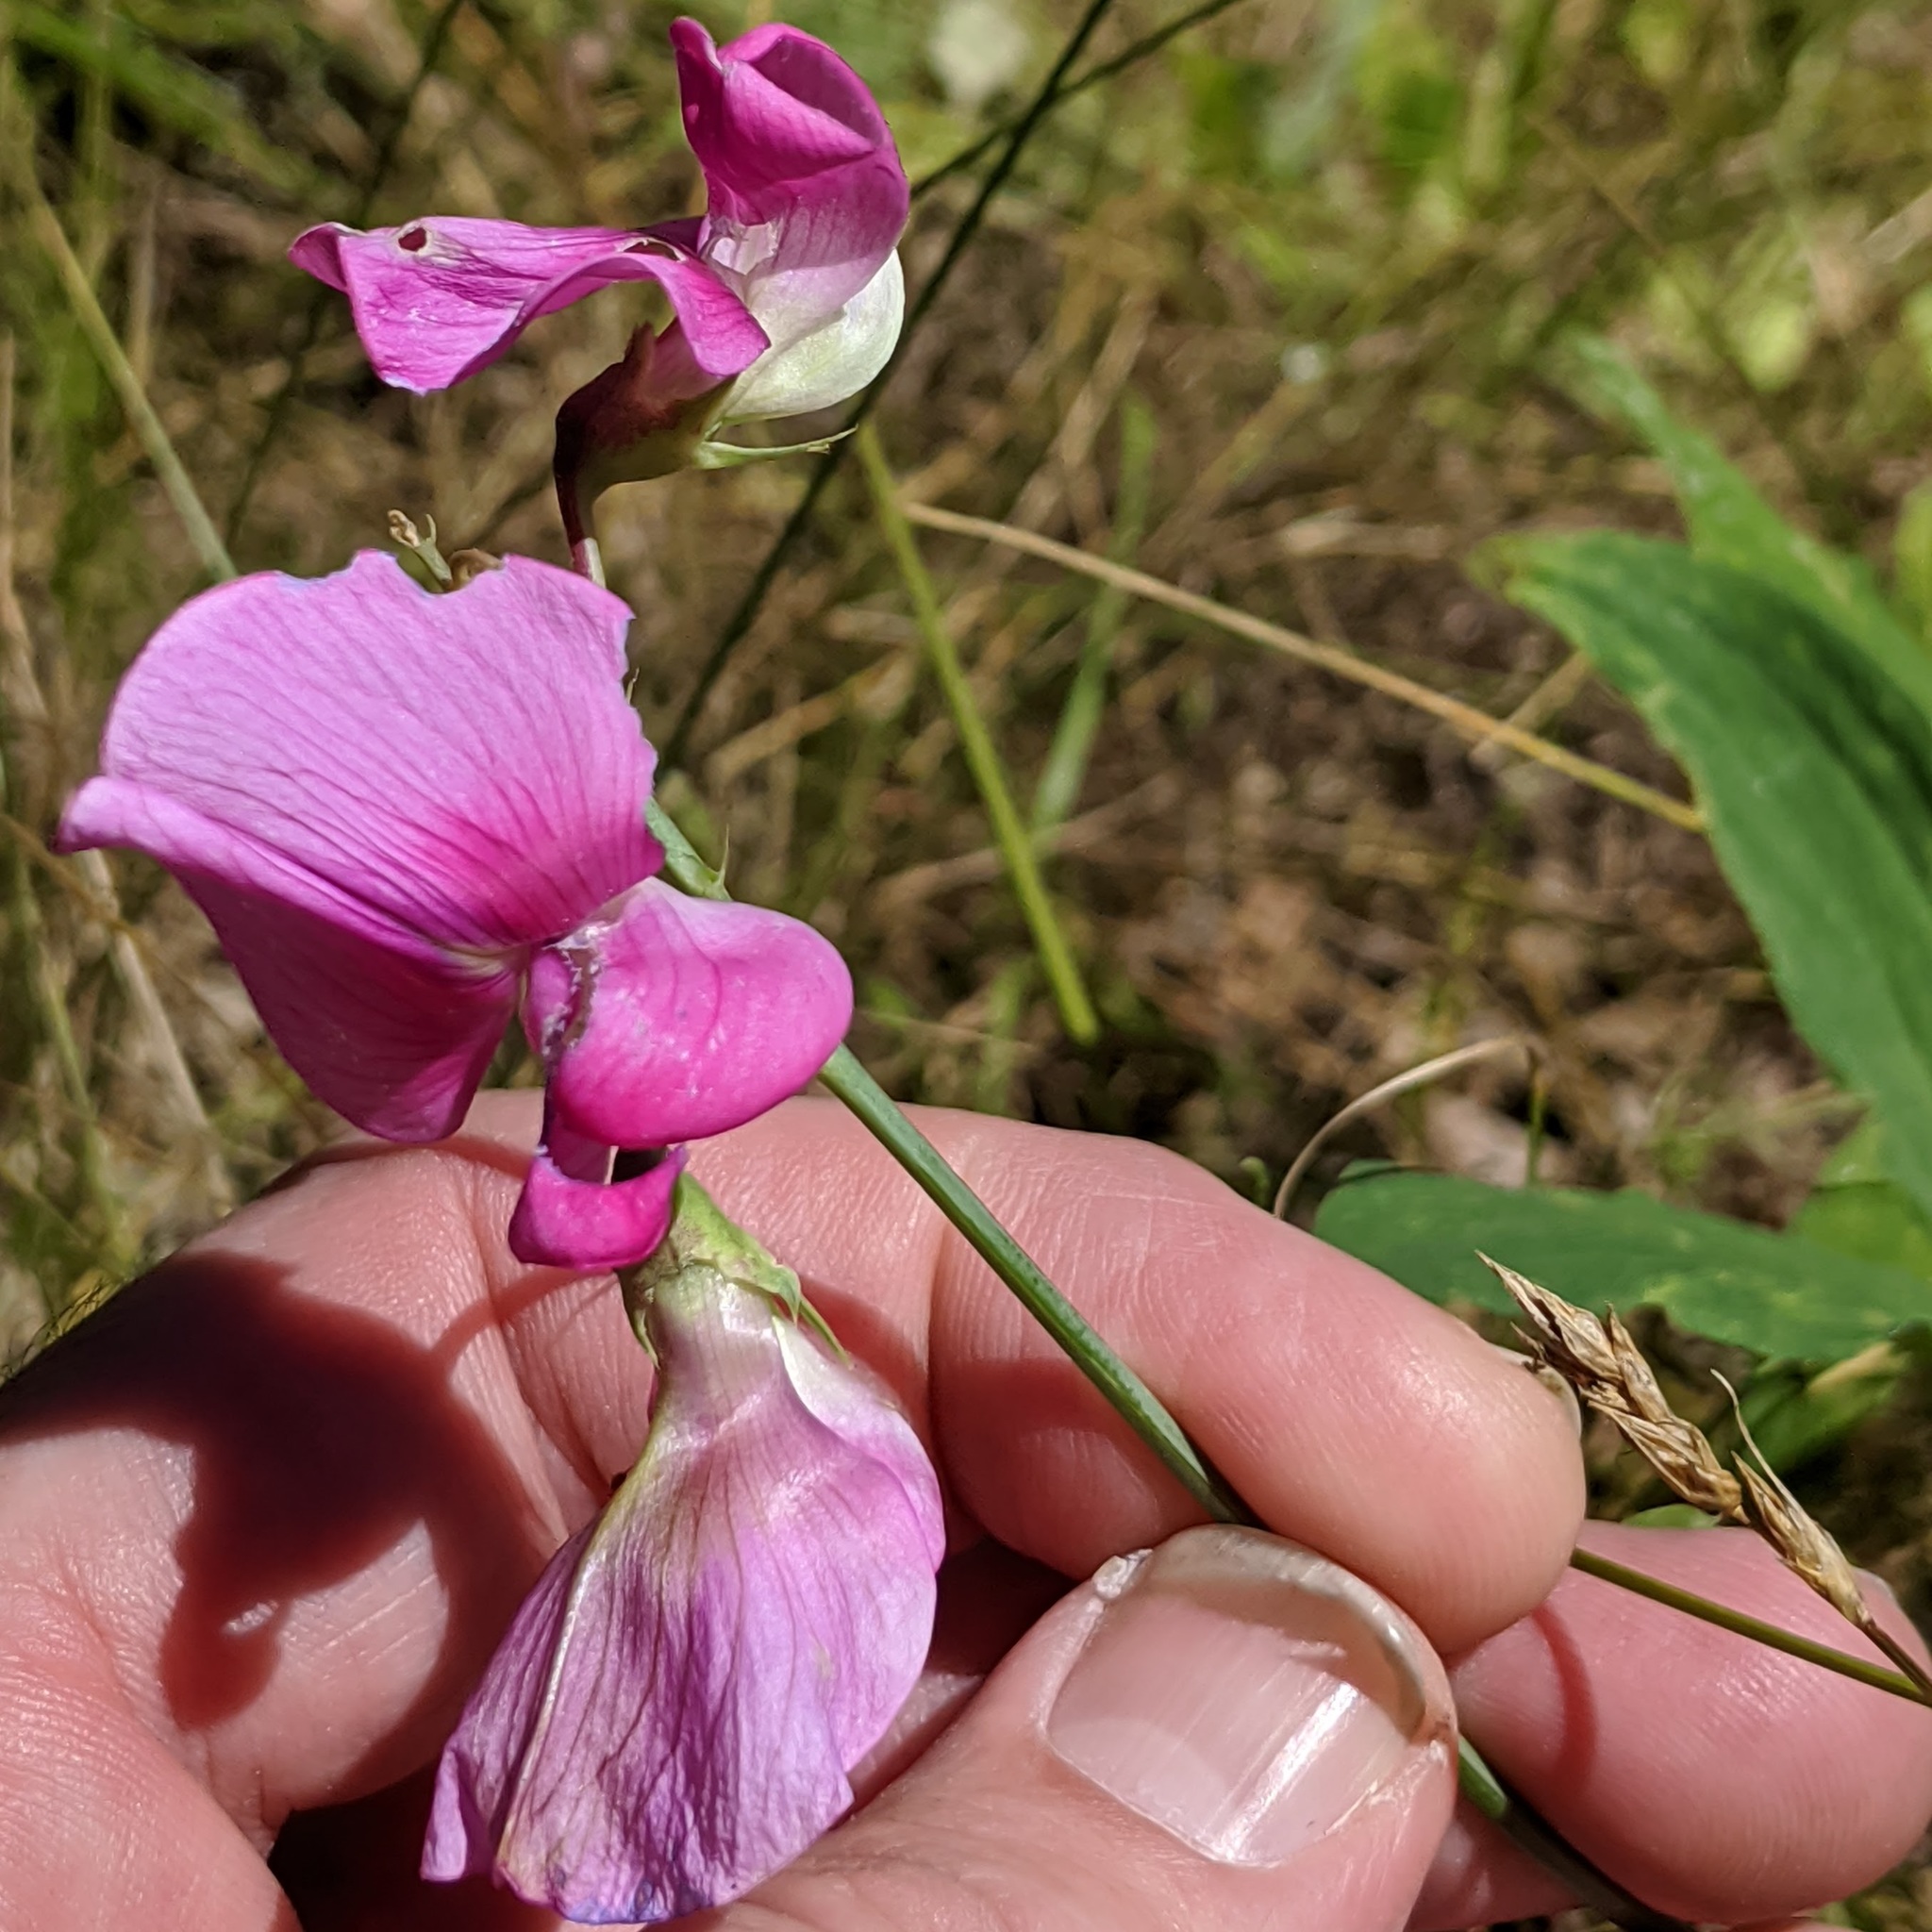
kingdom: Plantae
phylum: Tracheophyta
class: Magnoliopsida
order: Fabales
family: Fabaceae
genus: Lathyrus
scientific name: Lathyrus latifolius
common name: Perennial pea
